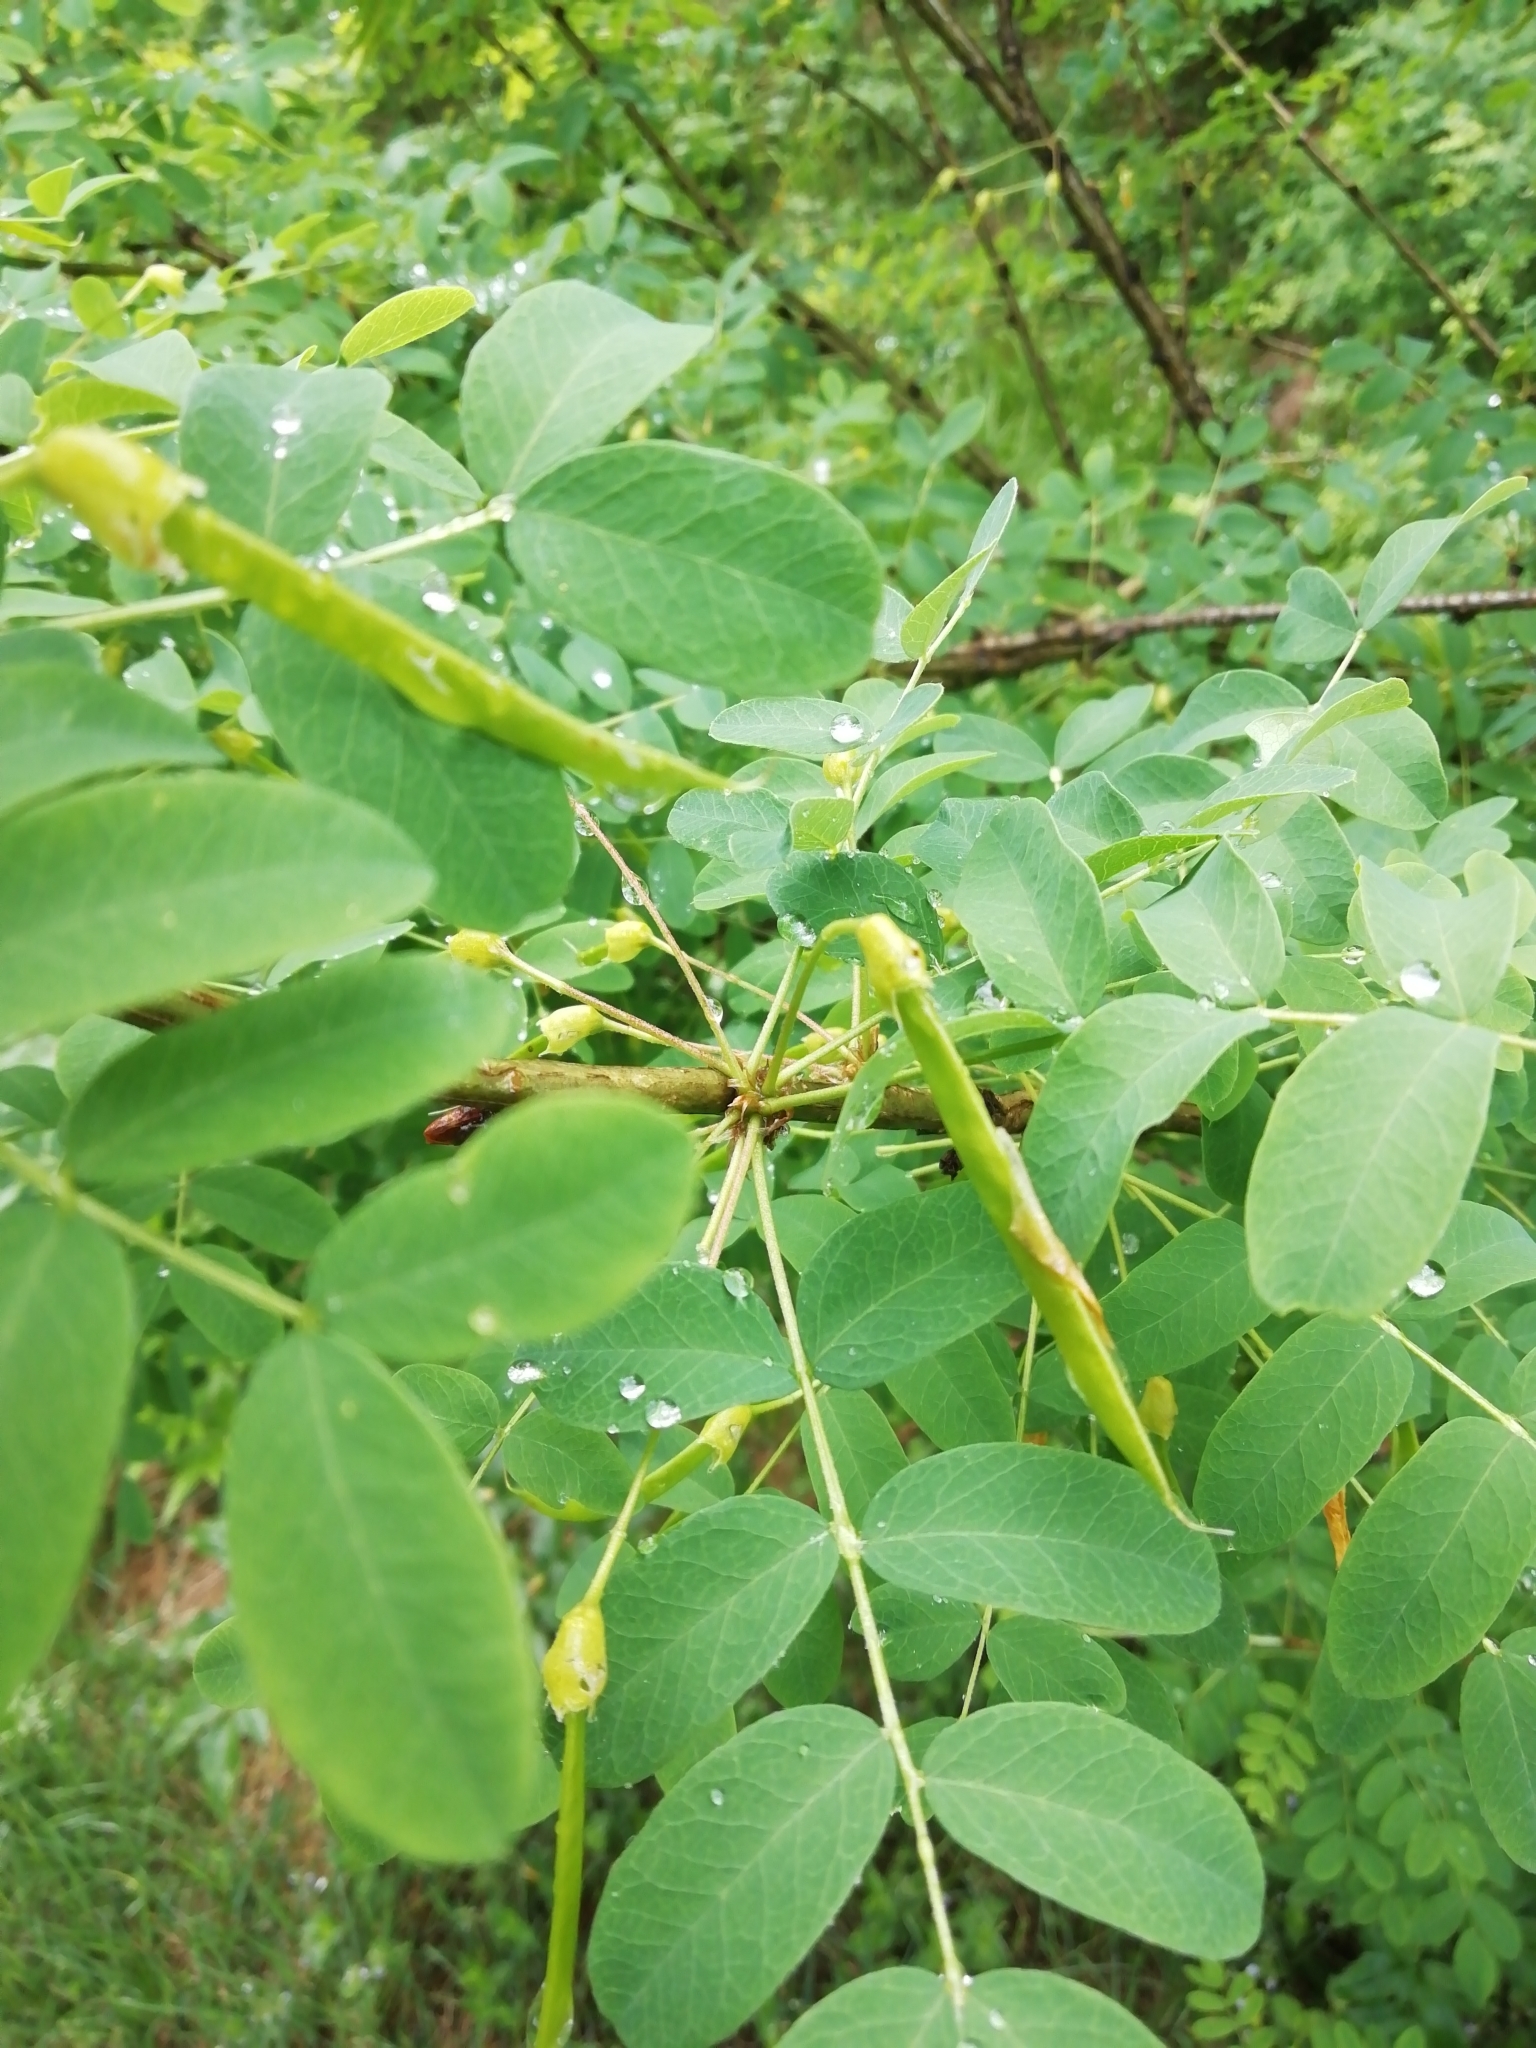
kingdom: Plantae
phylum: Tracheophyta
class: Magnoliopsida
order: Fabales
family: Fabaceae
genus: Caragana
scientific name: Caragana arborescens
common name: Siberian peashrub
